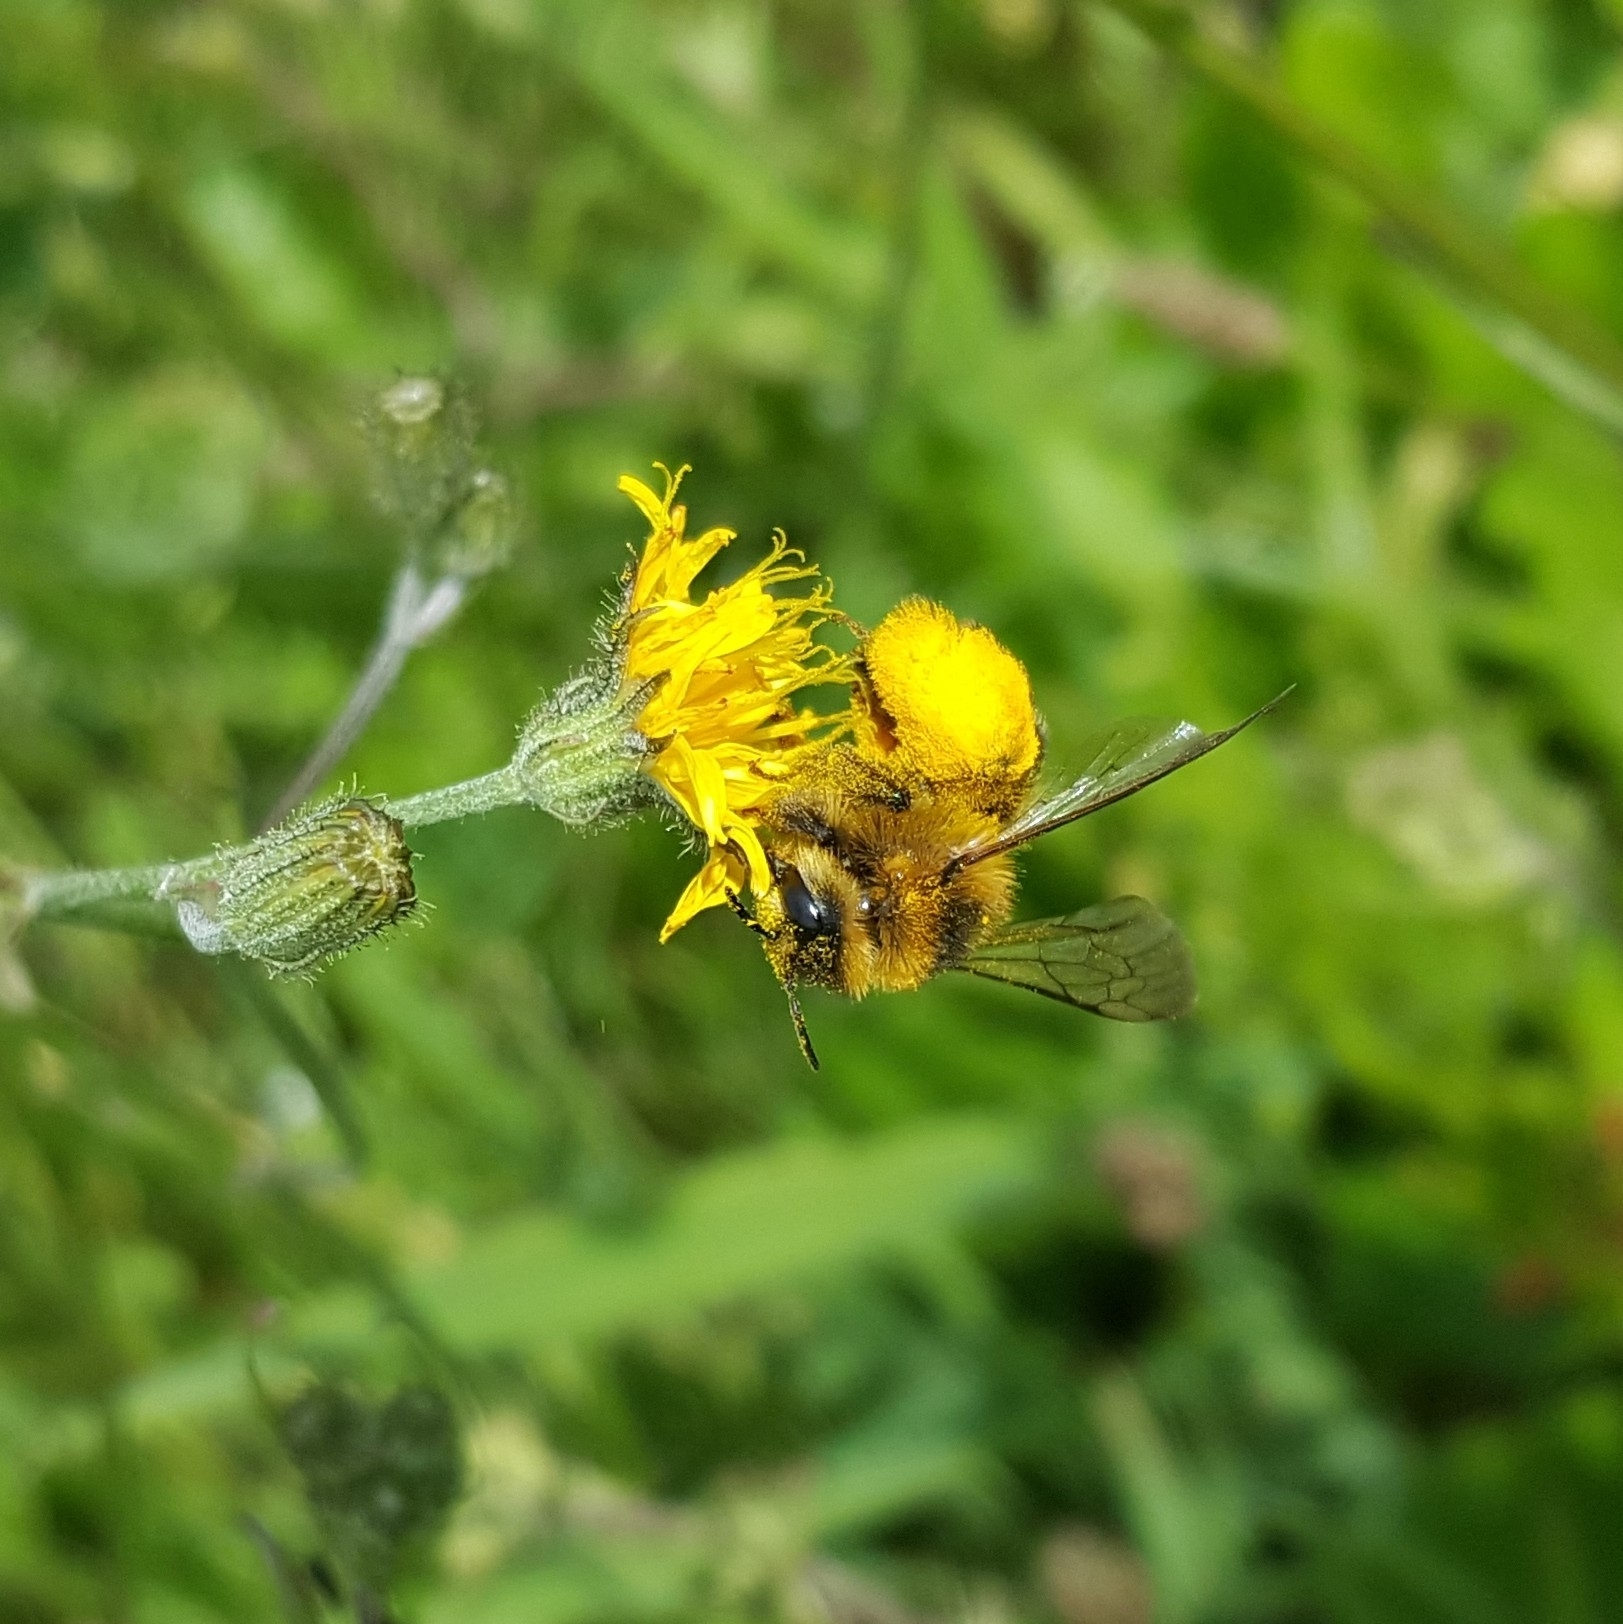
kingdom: Animalia
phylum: Arthropoda
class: Insecta
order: Hymenoptera
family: Melittidae
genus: Dasypoda
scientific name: Dasypoda hirtipes
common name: Pantaloon bee
